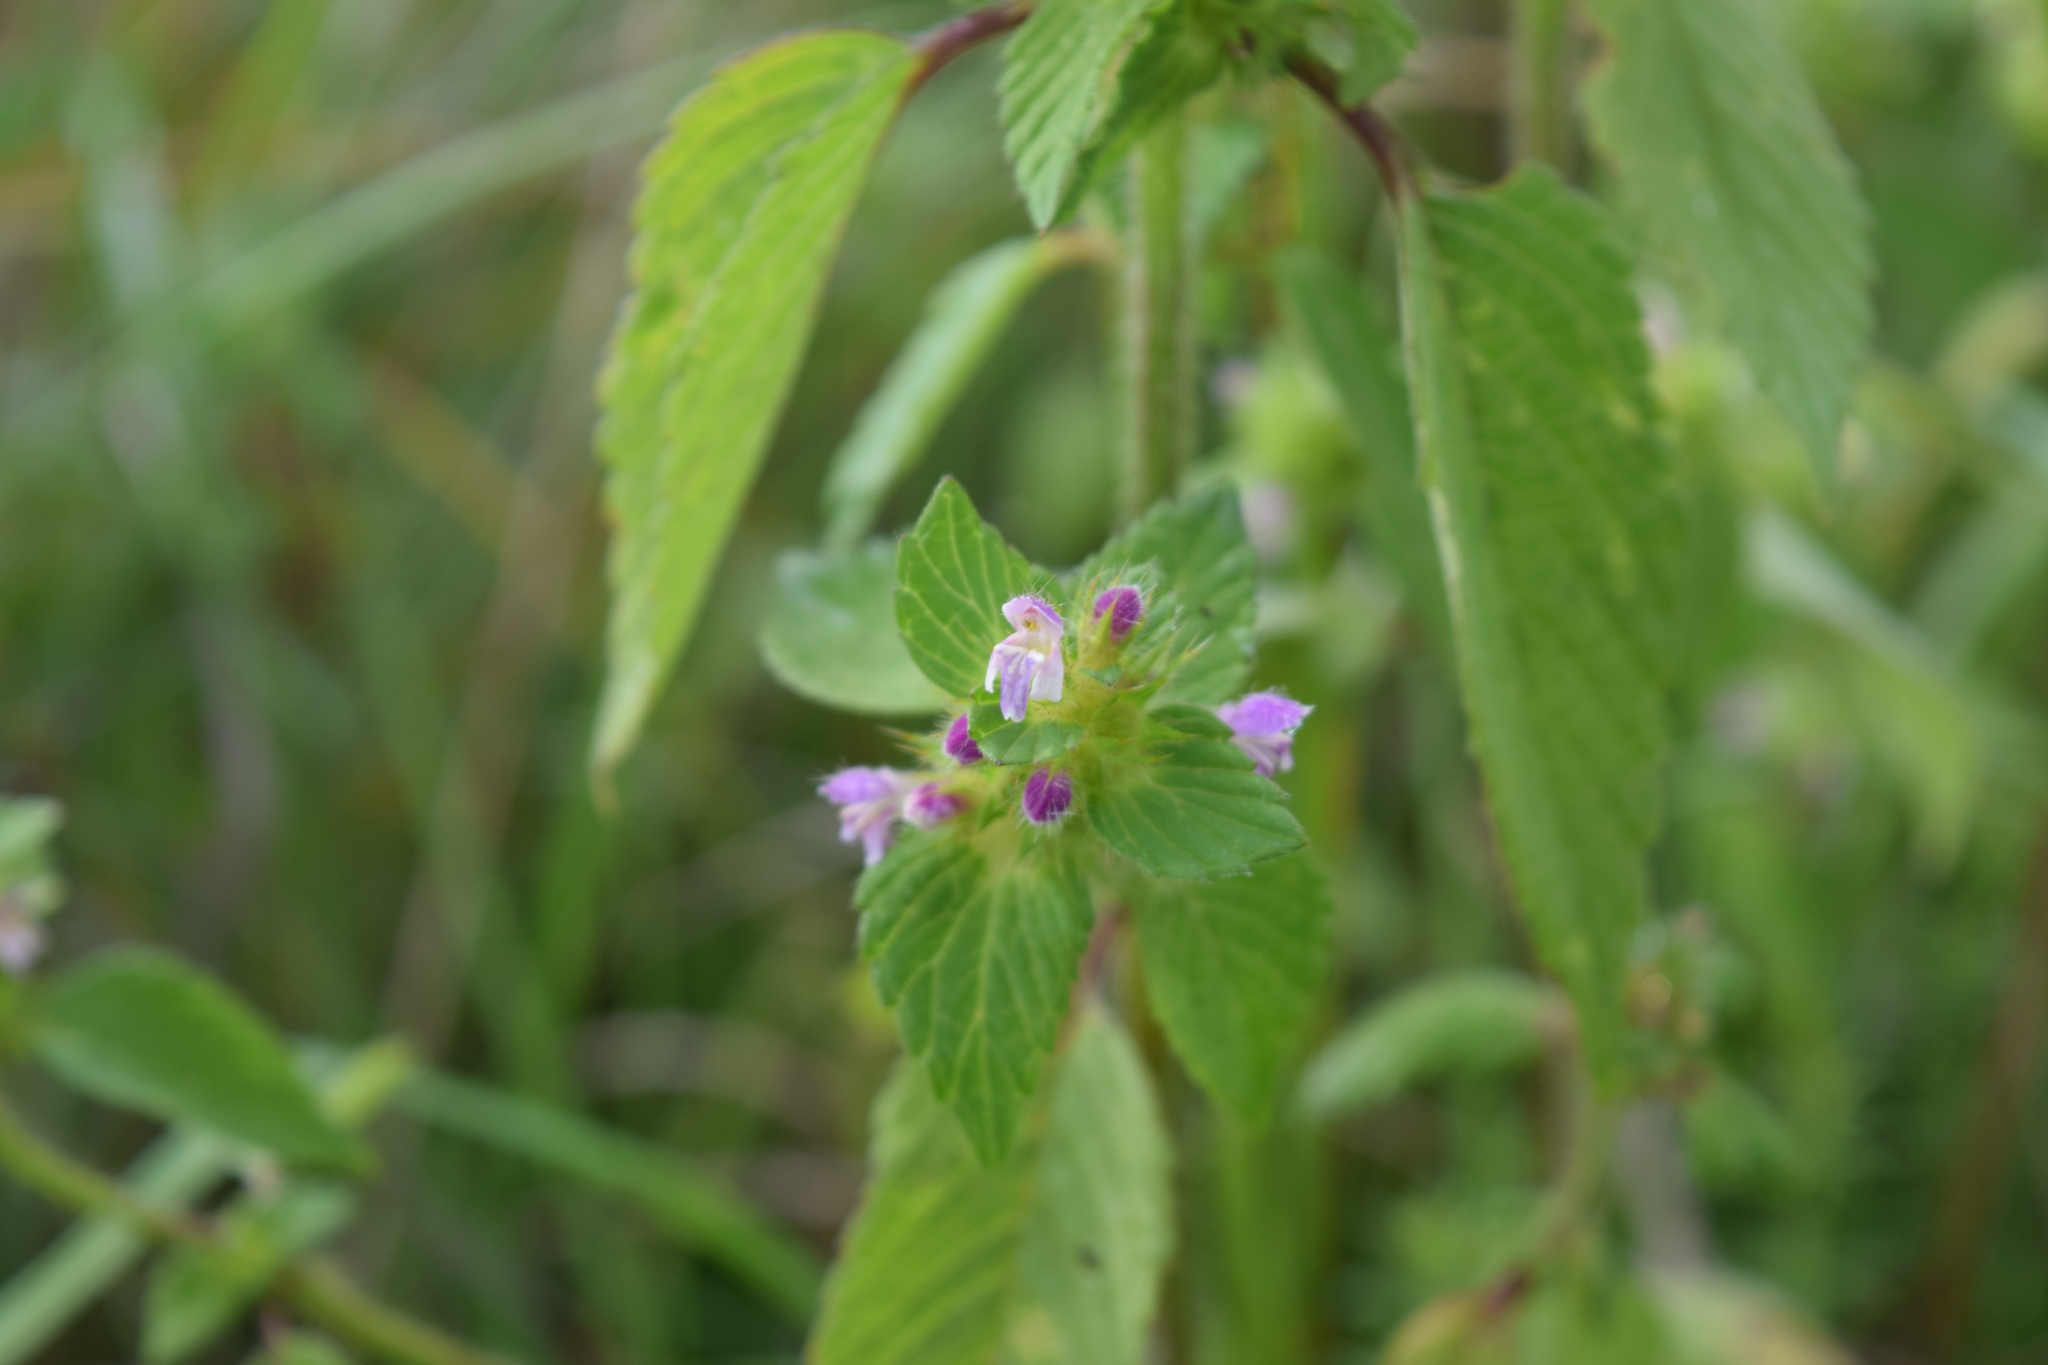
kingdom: Plantae
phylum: Tracheophyta
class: Magnoliopsida
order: Lamiales
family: Lamiaceae
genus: Galeopsis
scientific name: Galeopsis bifida
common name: Bifid hemp-nettle
